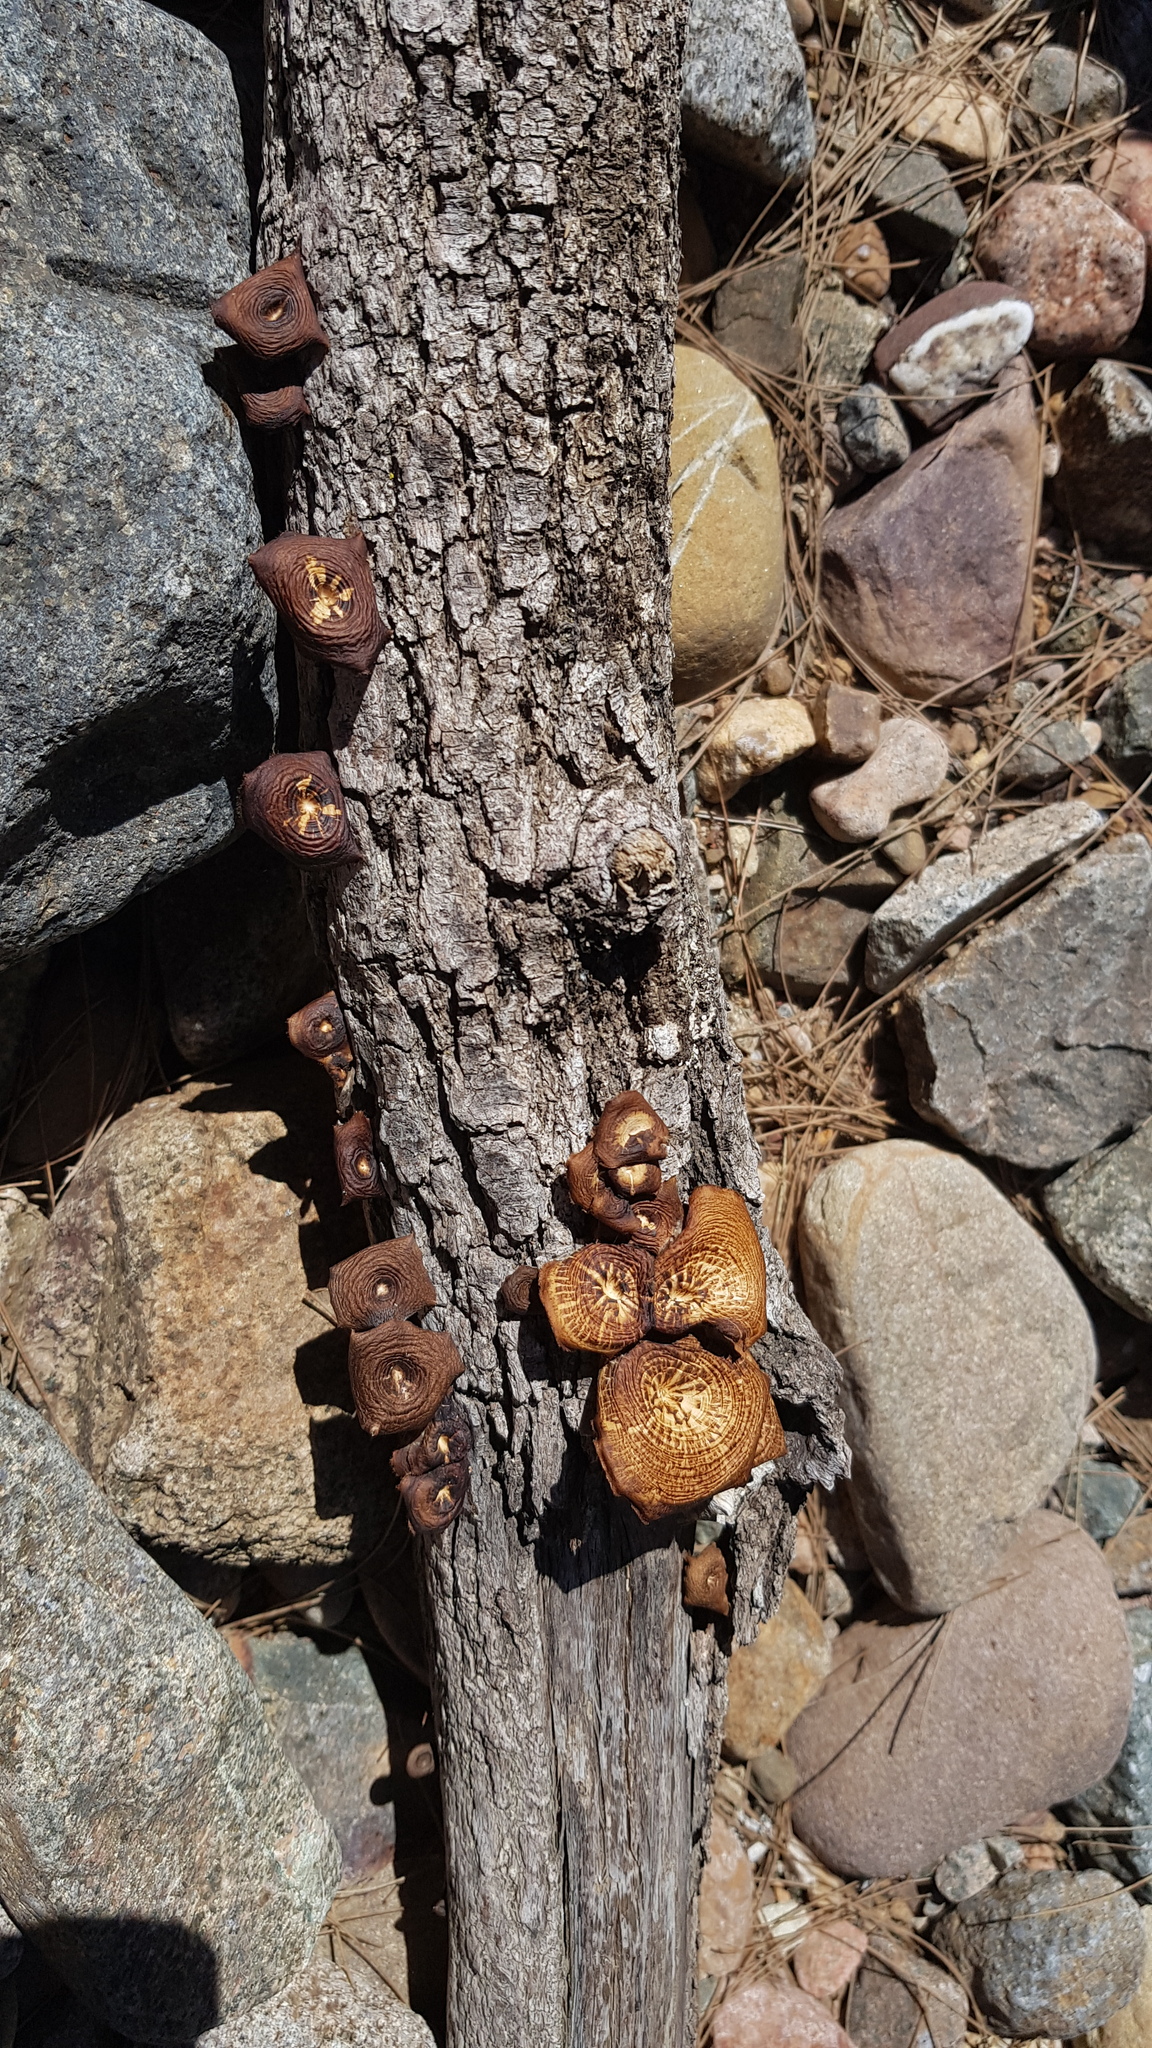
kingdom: Fungi
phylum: Basidiomycota
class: Agaricomycetes
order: Polyporales
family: Polyporaceae
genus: Lentinus
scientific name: Lentinus arcularius
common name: Spring polypore
